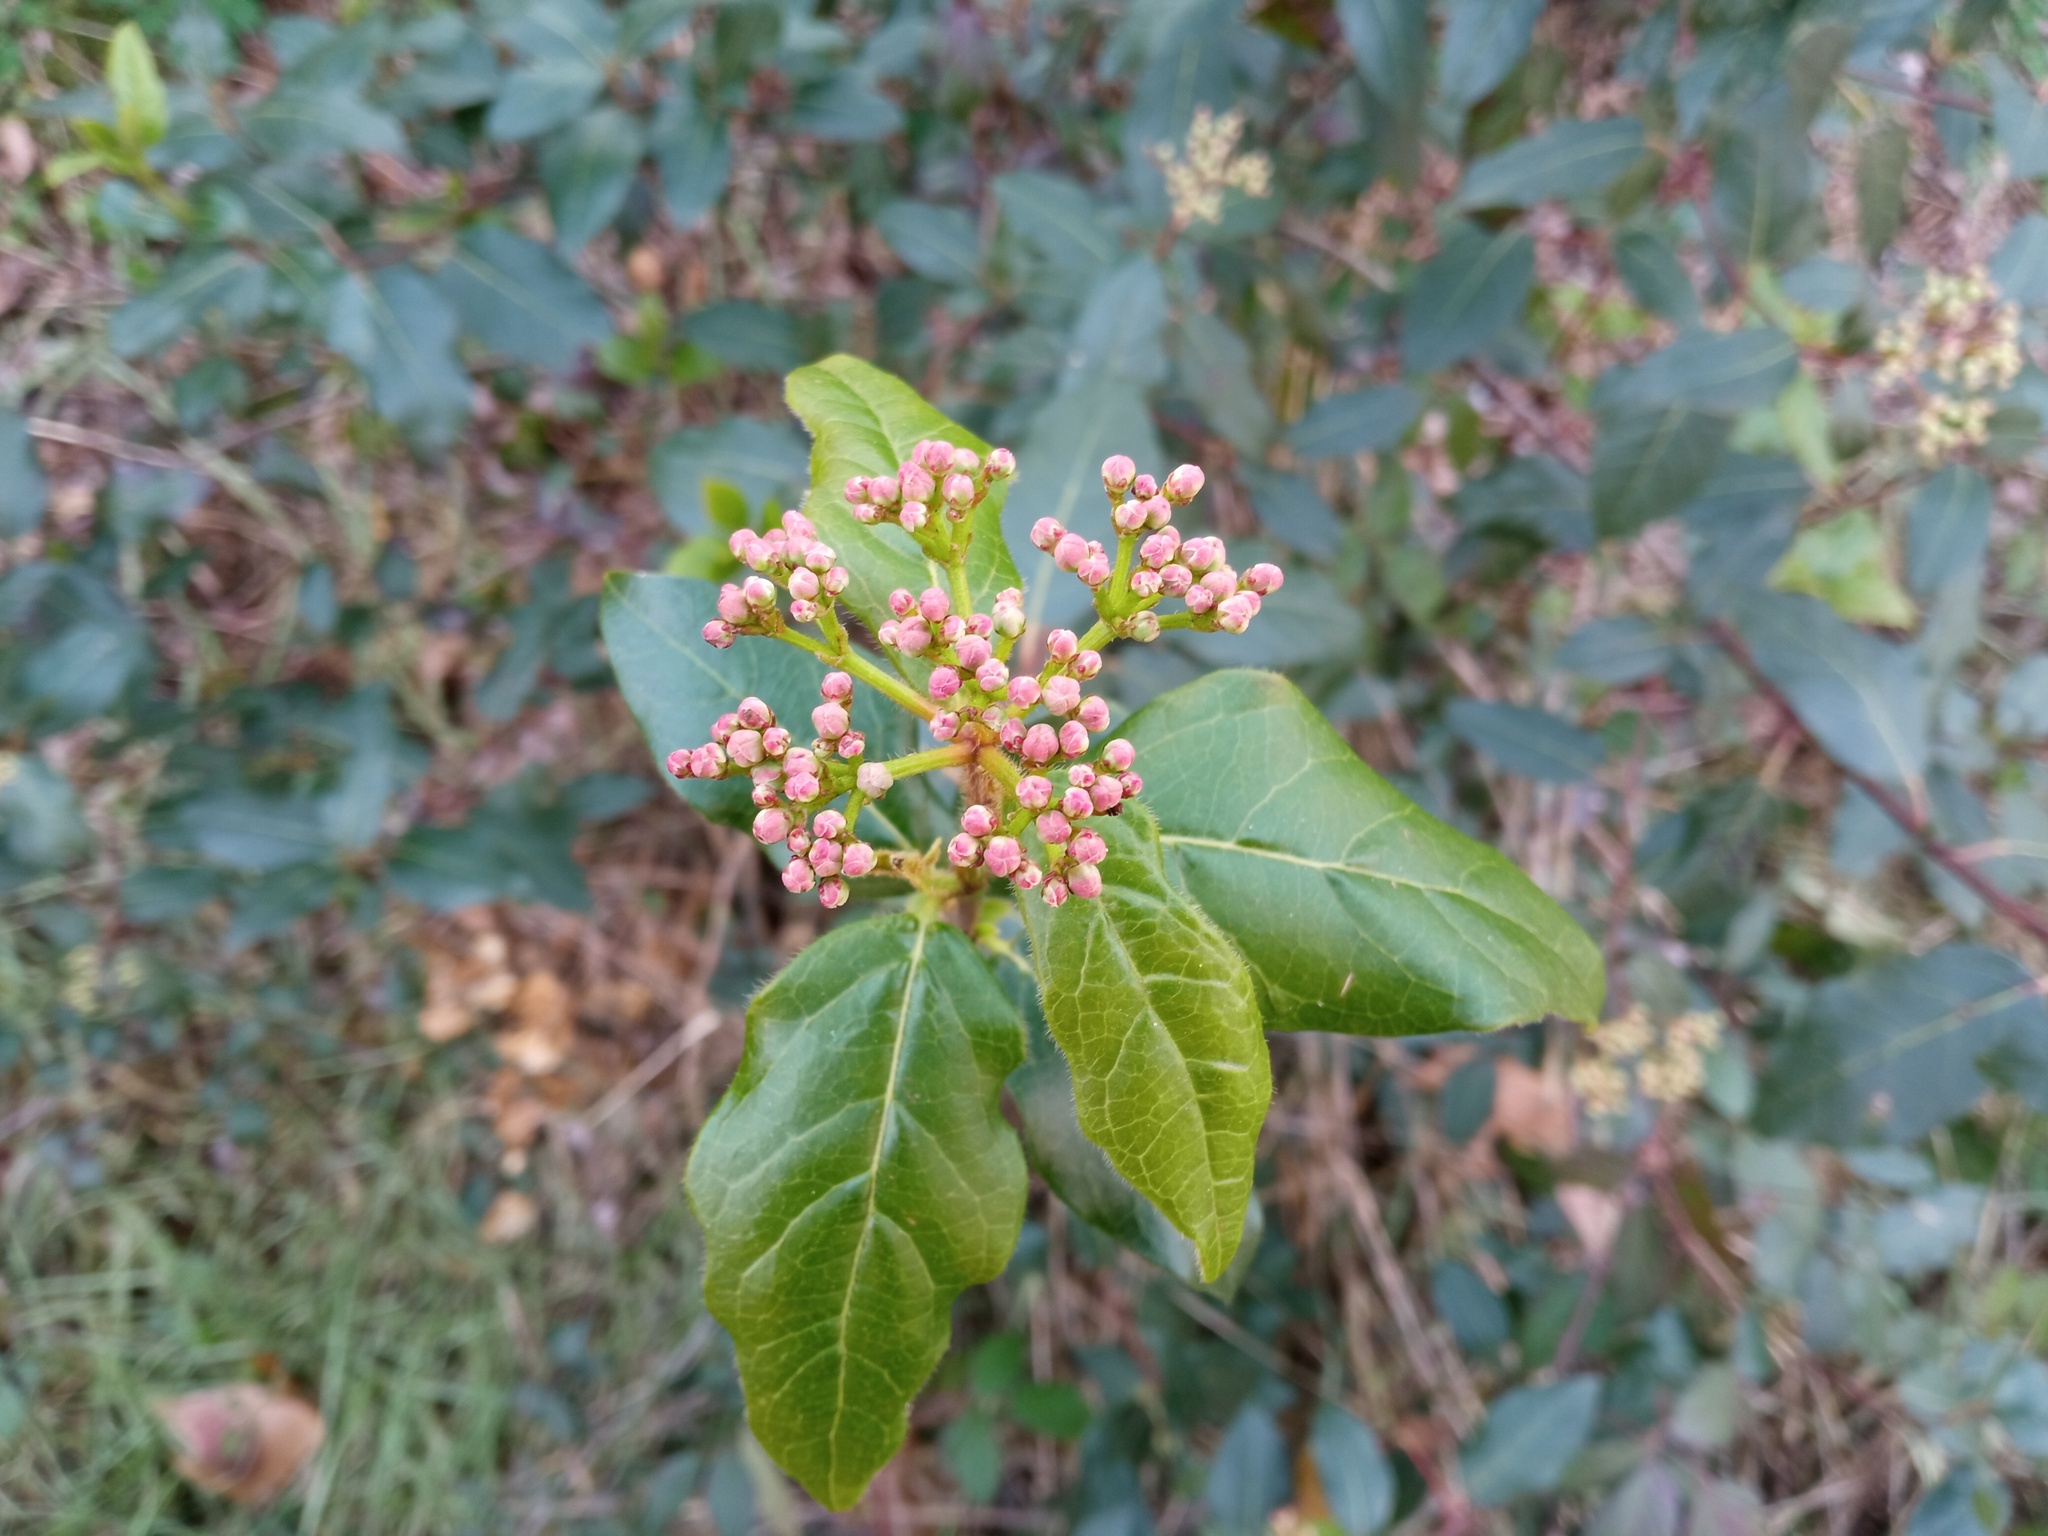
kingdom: Plantae
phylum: Tracheophyta
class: Magnoliopsida
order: Dipsacales
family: Viburnaceae
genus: Viburnum
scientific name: Viburnum tinus
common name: Laurustinus
